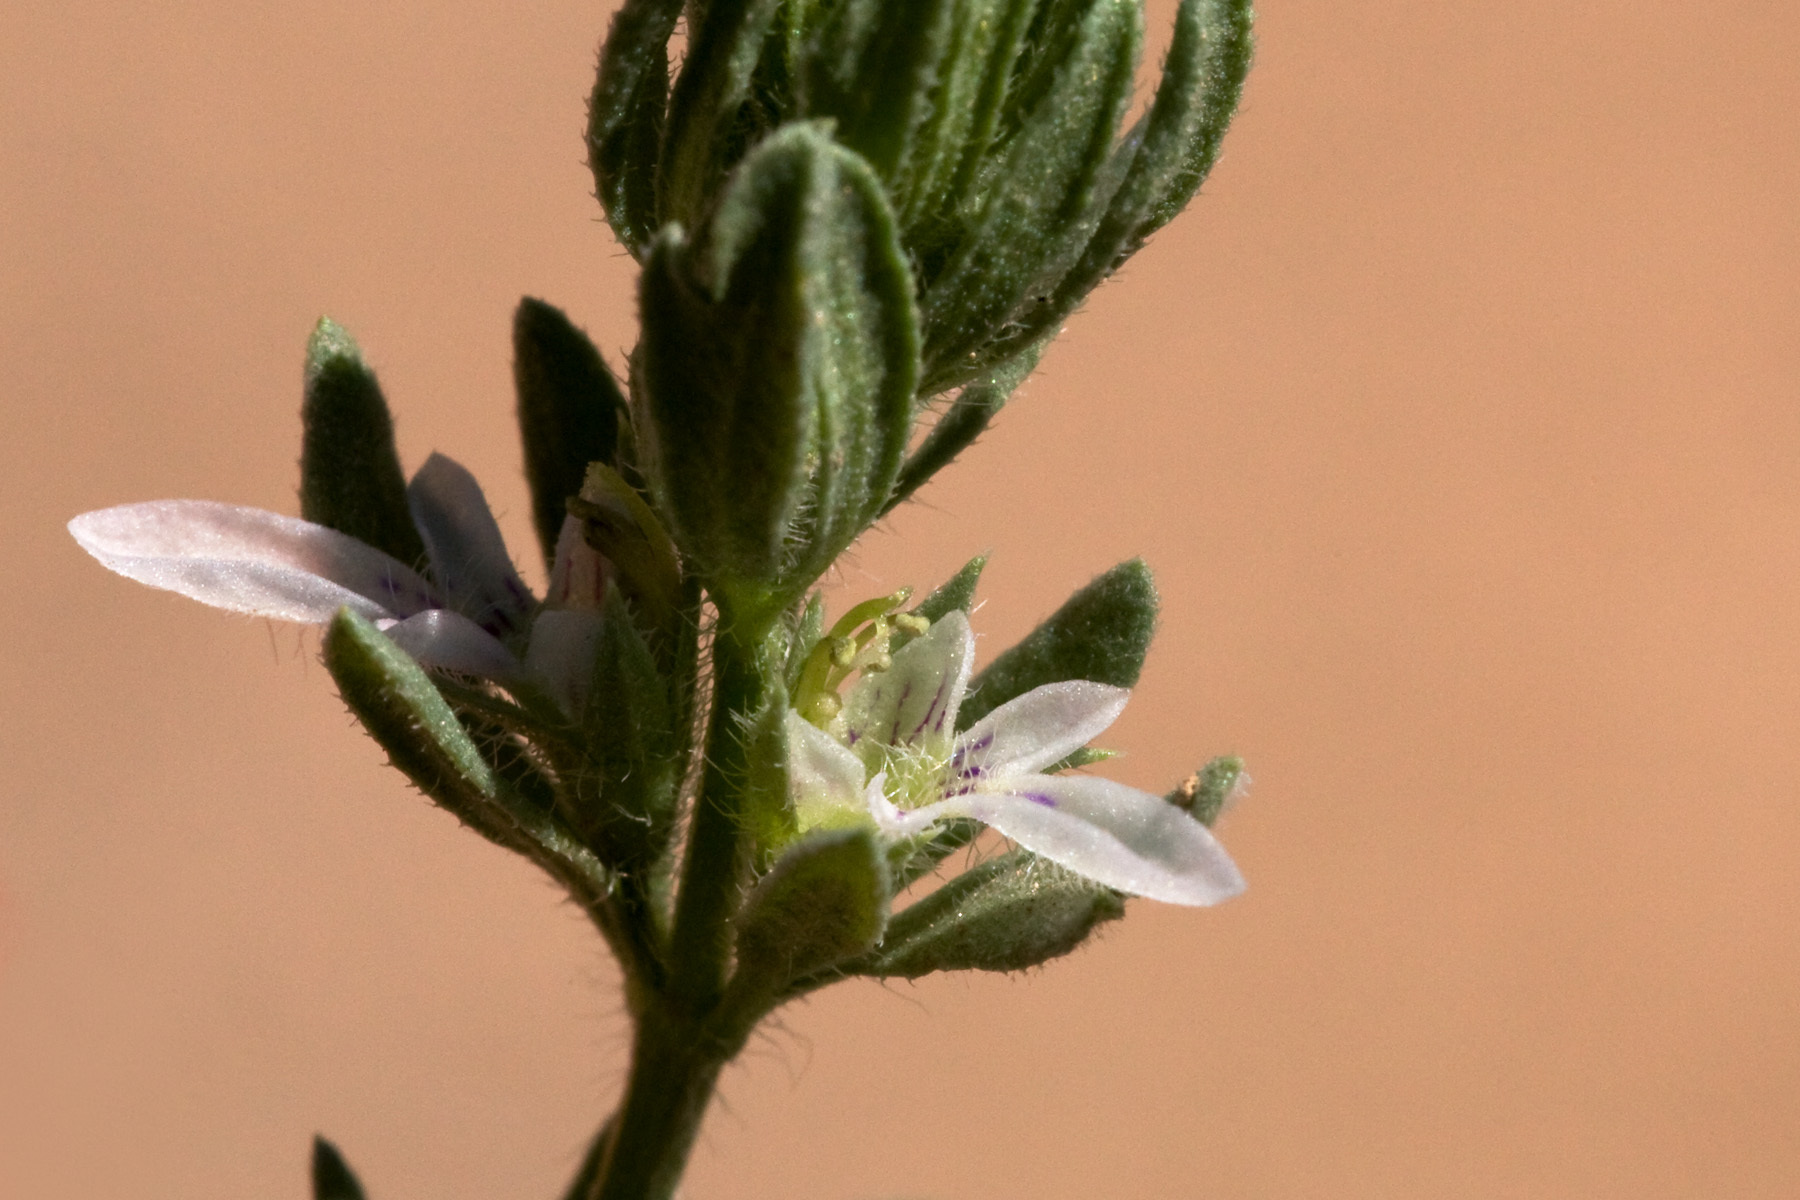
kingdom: Plantae
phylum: Tracheophyta
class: Magnoliopsida
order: Lamiales
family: Lamiaceae
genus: Teucrium
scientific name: Teucrium depressum
